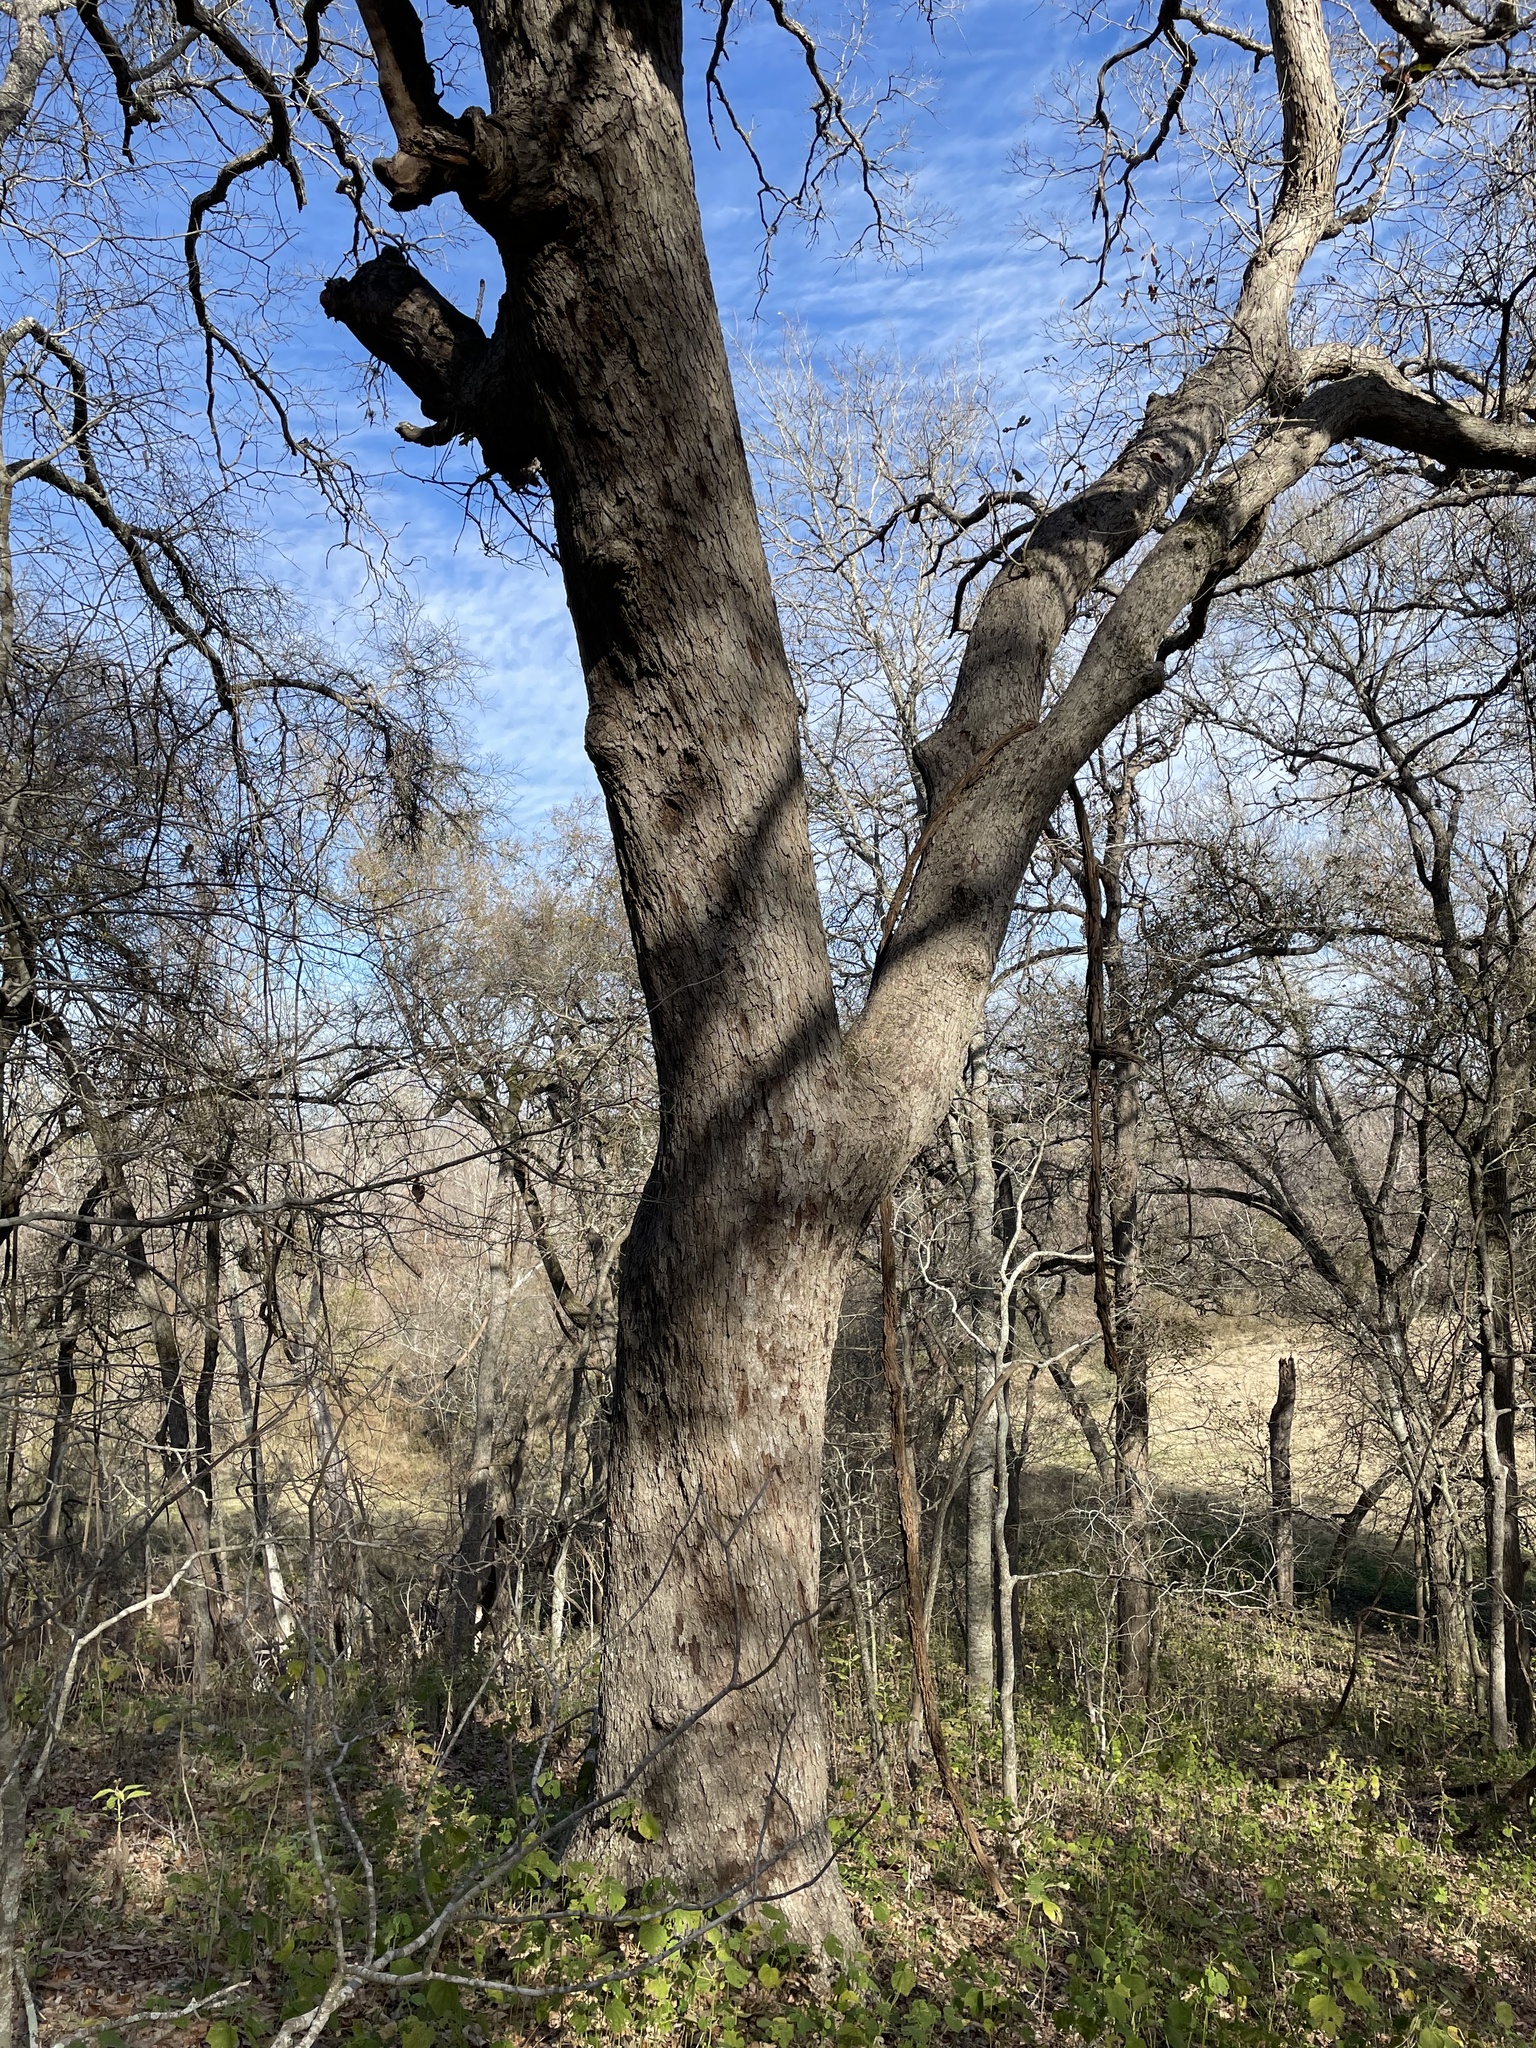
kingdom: Plantae
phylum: Tracheophyta
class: Magnoliopsida
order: Fagales
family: Fagaceae
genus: Quercus
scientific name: Quercus sinuata
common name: Durand oak
